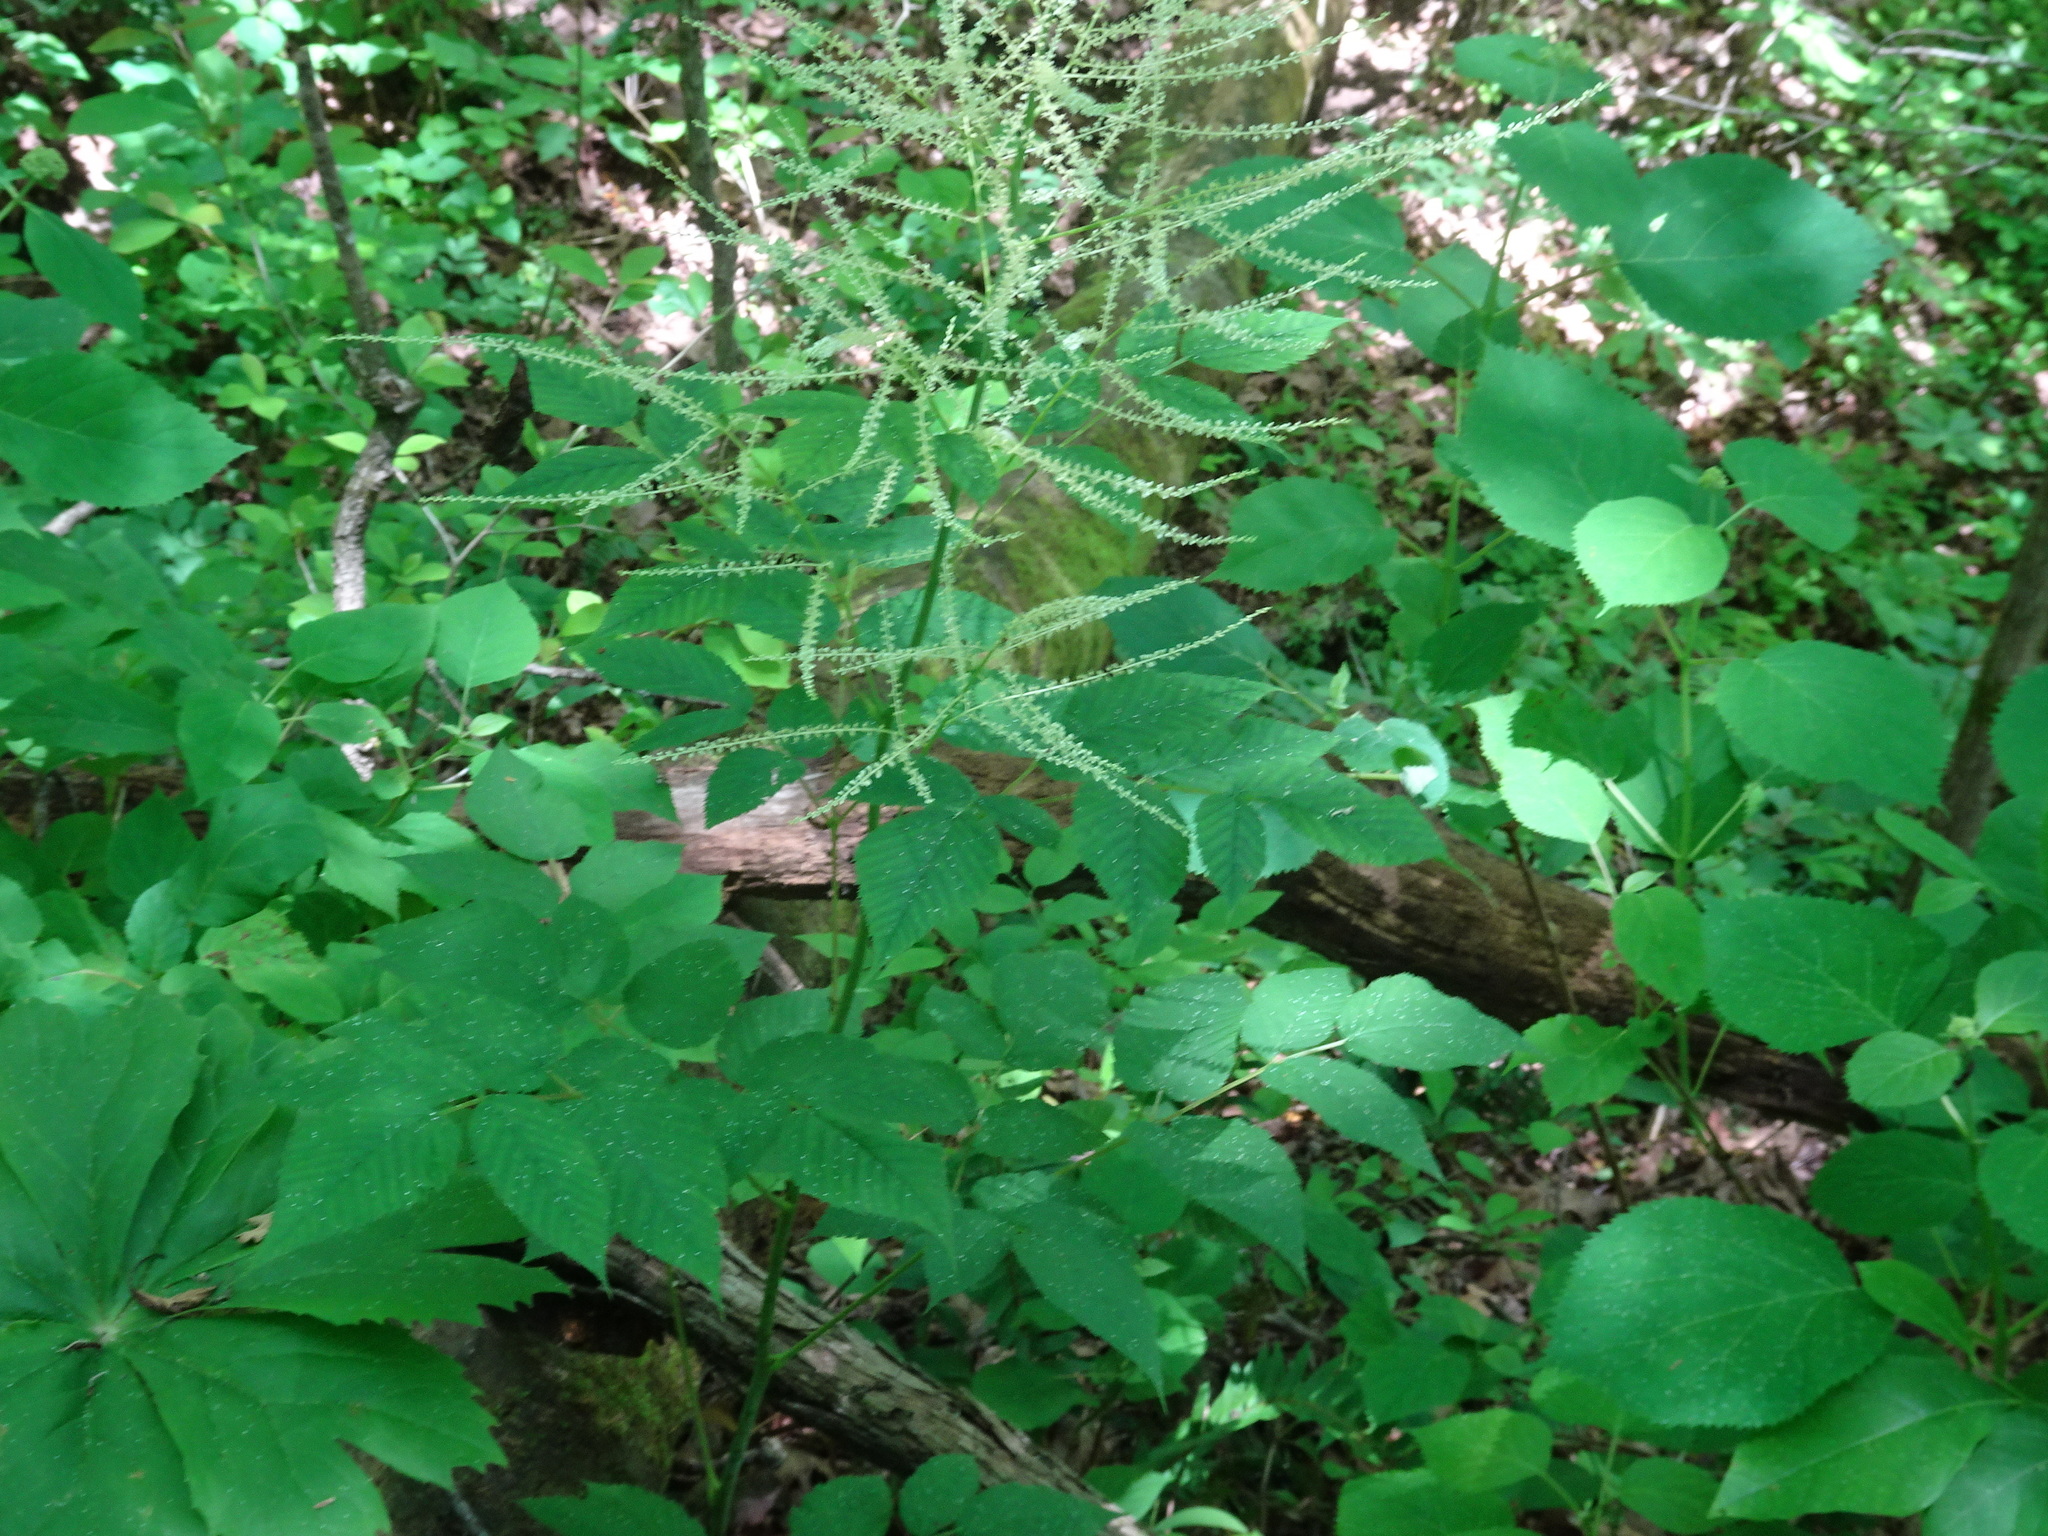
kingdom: Plantae
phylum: Tracheophyta
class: Magnoliopsida
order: Rosales
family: Rosaceae
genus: Aruncus
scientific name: Aruncus dioicus
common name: Buck's-beard
